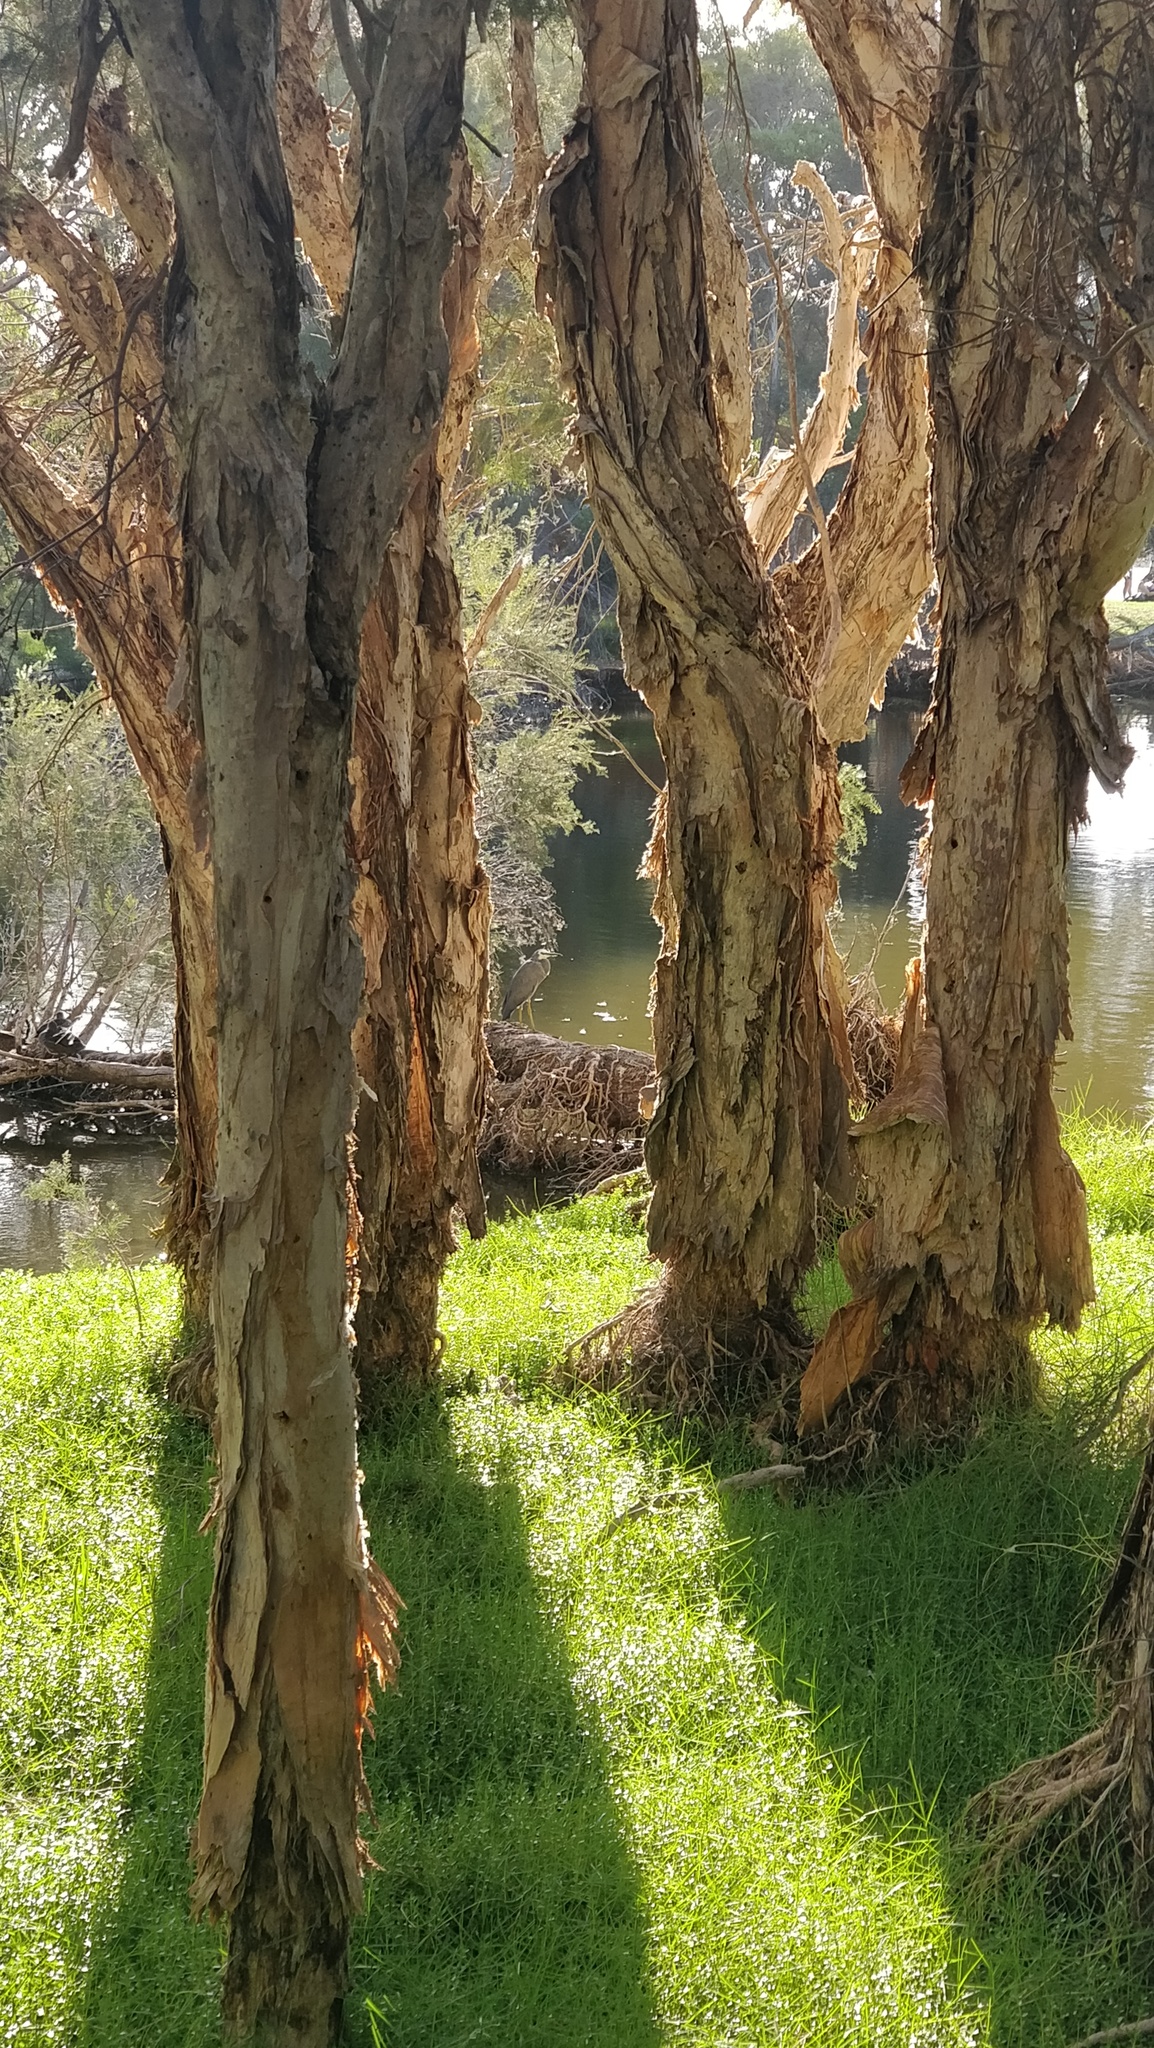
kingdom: Animalia
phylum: Chordata
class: Aves
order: Pelecaniformes
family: Ardeidae
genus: Egretta
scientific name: Egretta novaehollandiae
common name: White-faced heron
